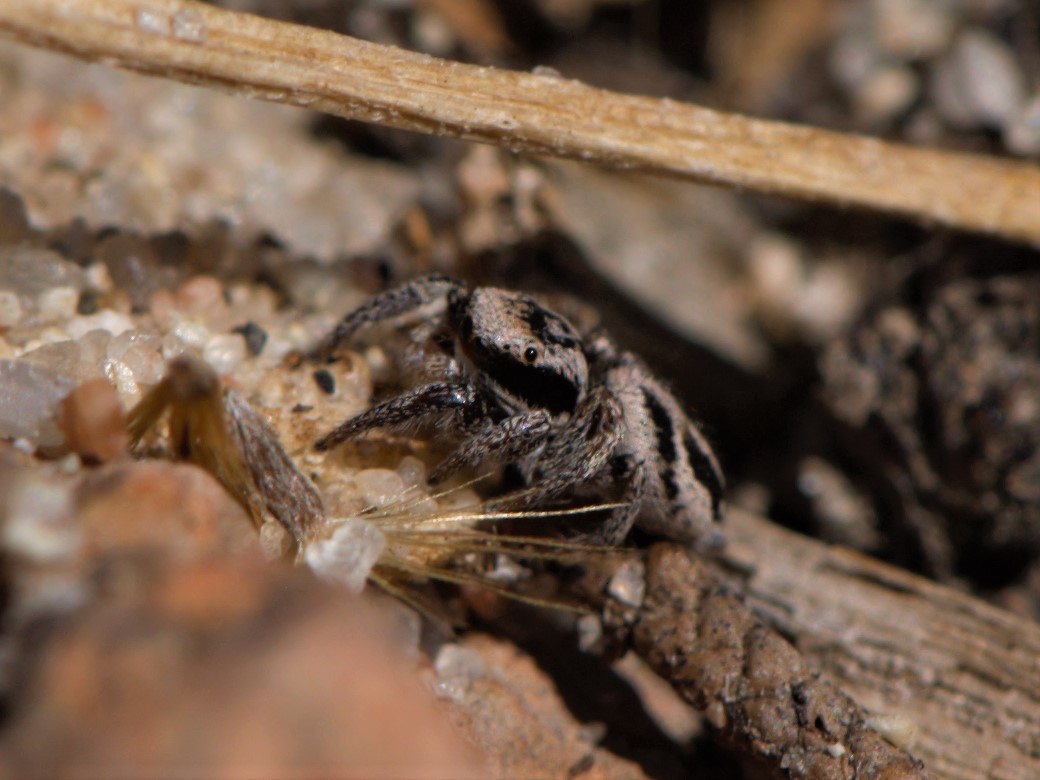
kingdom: Animalia
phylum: Arthropoda
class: Arachnida
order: Araneae
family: Salticidae
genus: Habronattus
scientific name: Habronattus klauseri
